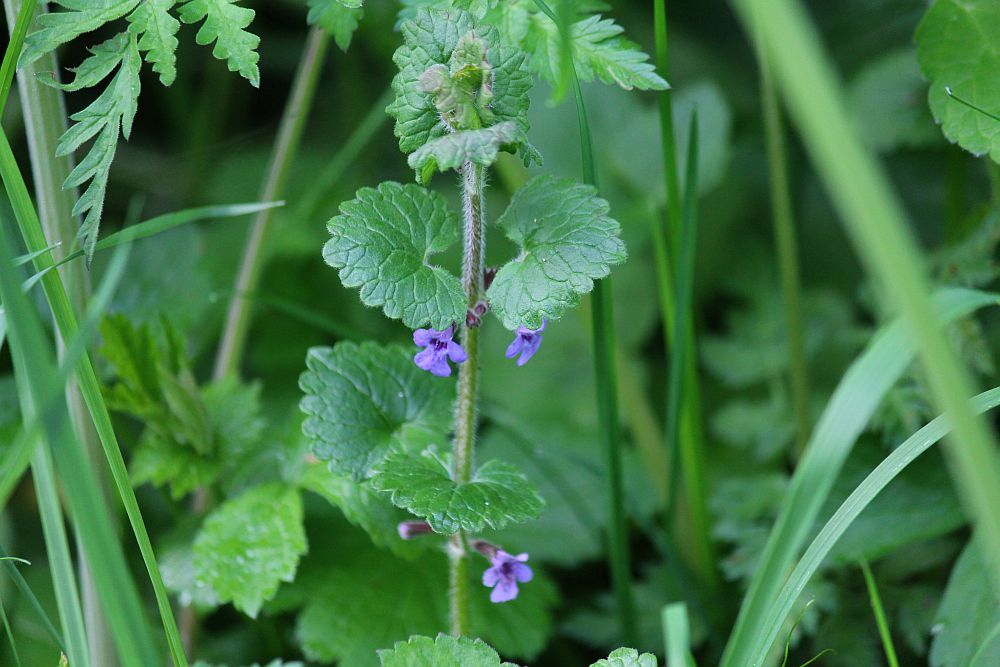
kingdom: Plantae
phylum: Tracheophyta
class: Magnoliopsida
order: Lamiales
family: Lamiaceae
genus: Glechoma
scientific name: Glechoma hederacea
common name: Ground ivy
